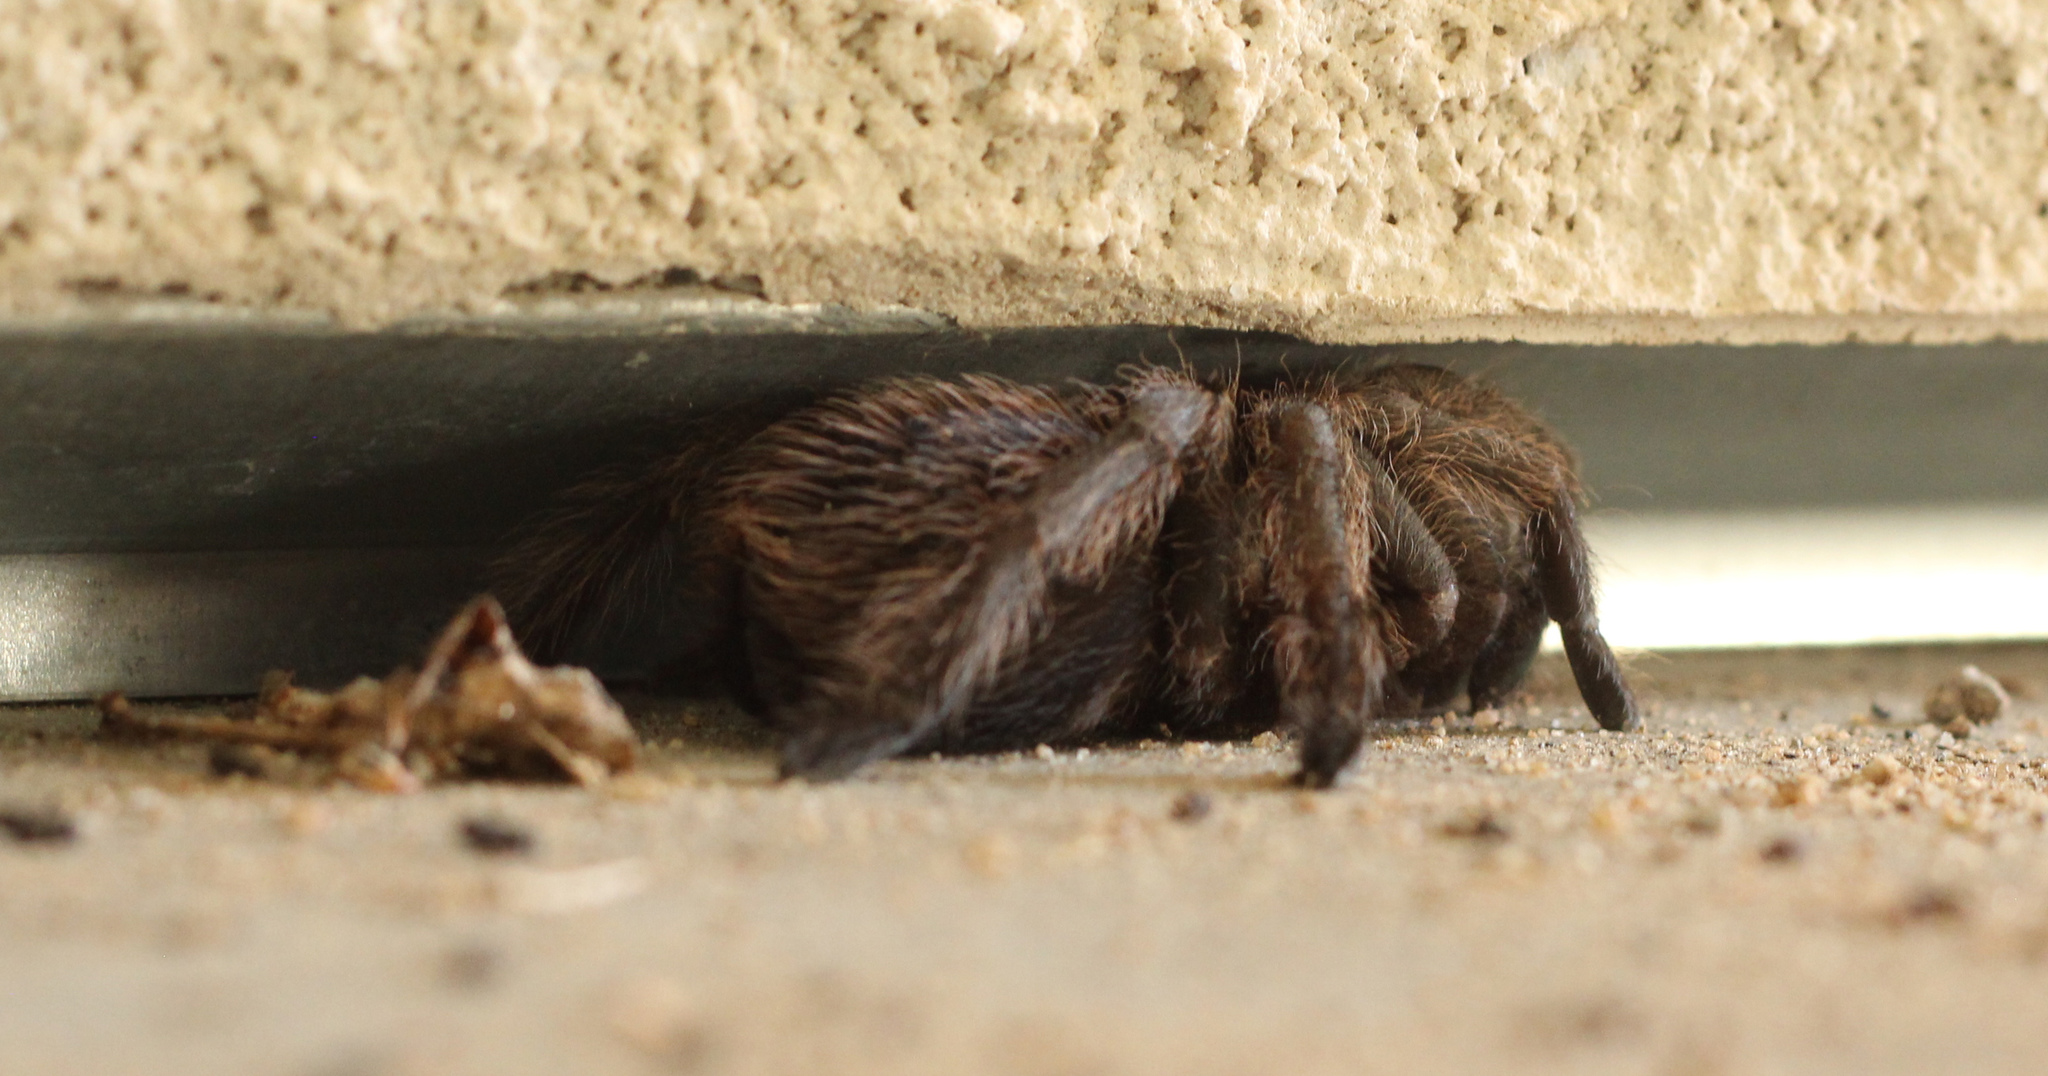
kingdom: Animalia
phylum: Arthropoda
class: Arachnida
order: Araneae
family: Theraphosidae
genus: Aphonopelma
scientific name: Aphonopelma johnnycashi
